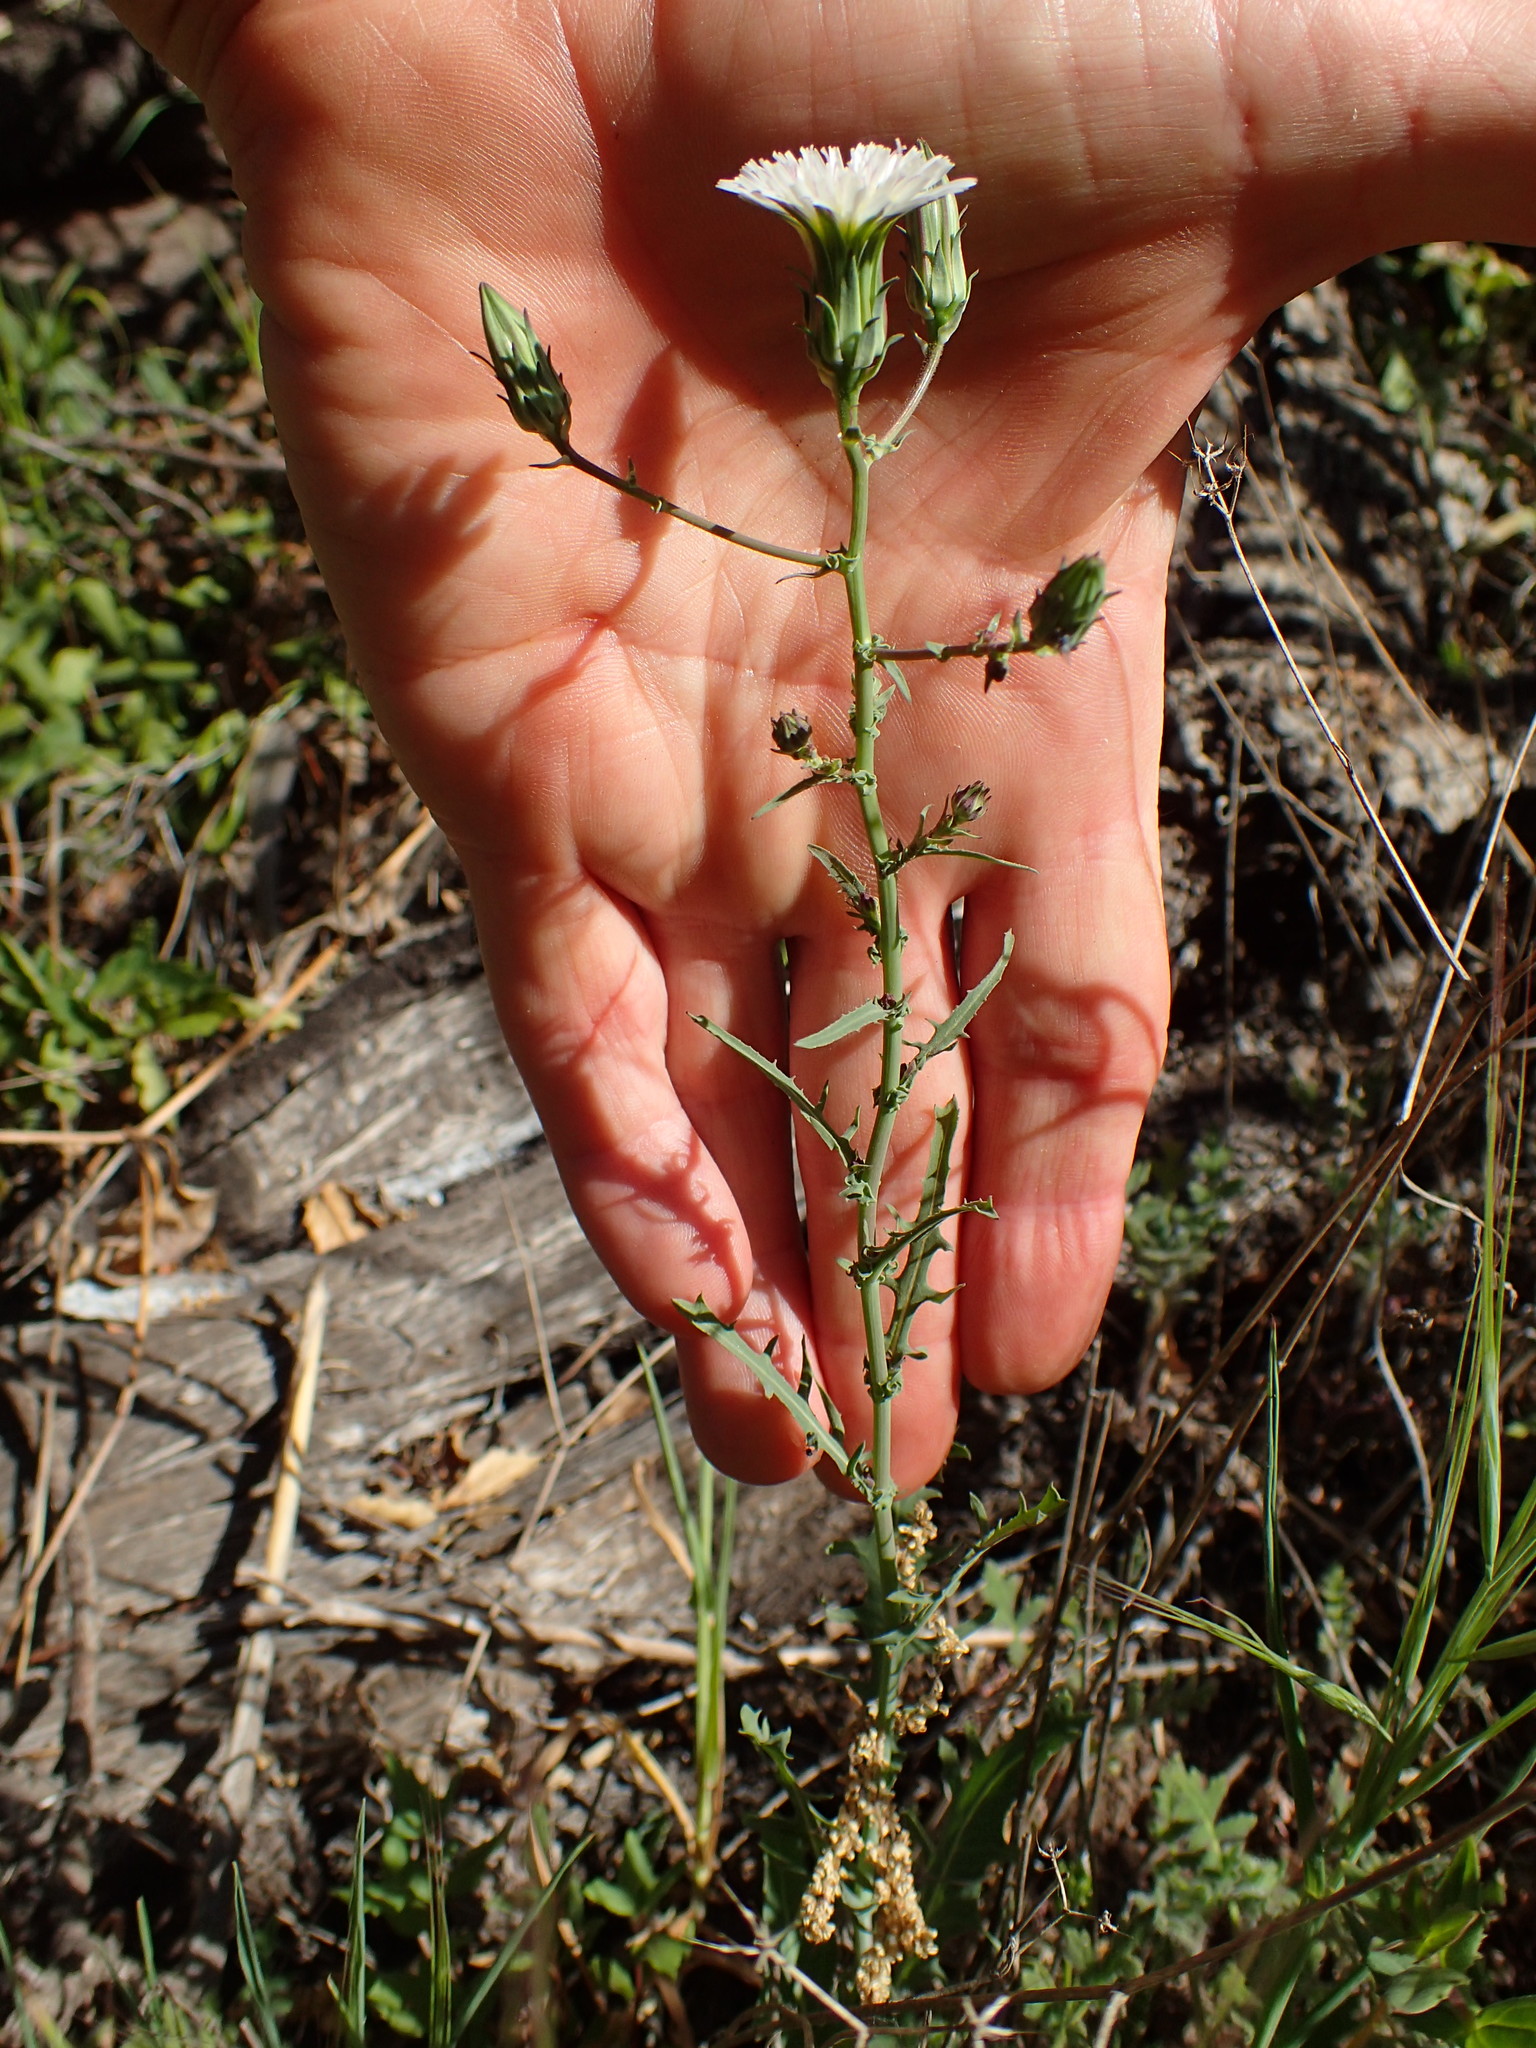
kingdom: Plantae
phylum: Tracheophyta
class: Magnoliopsida
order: Asterales
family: Asteraceae
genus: Rafinesquia
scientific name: Rafinesquia californica
